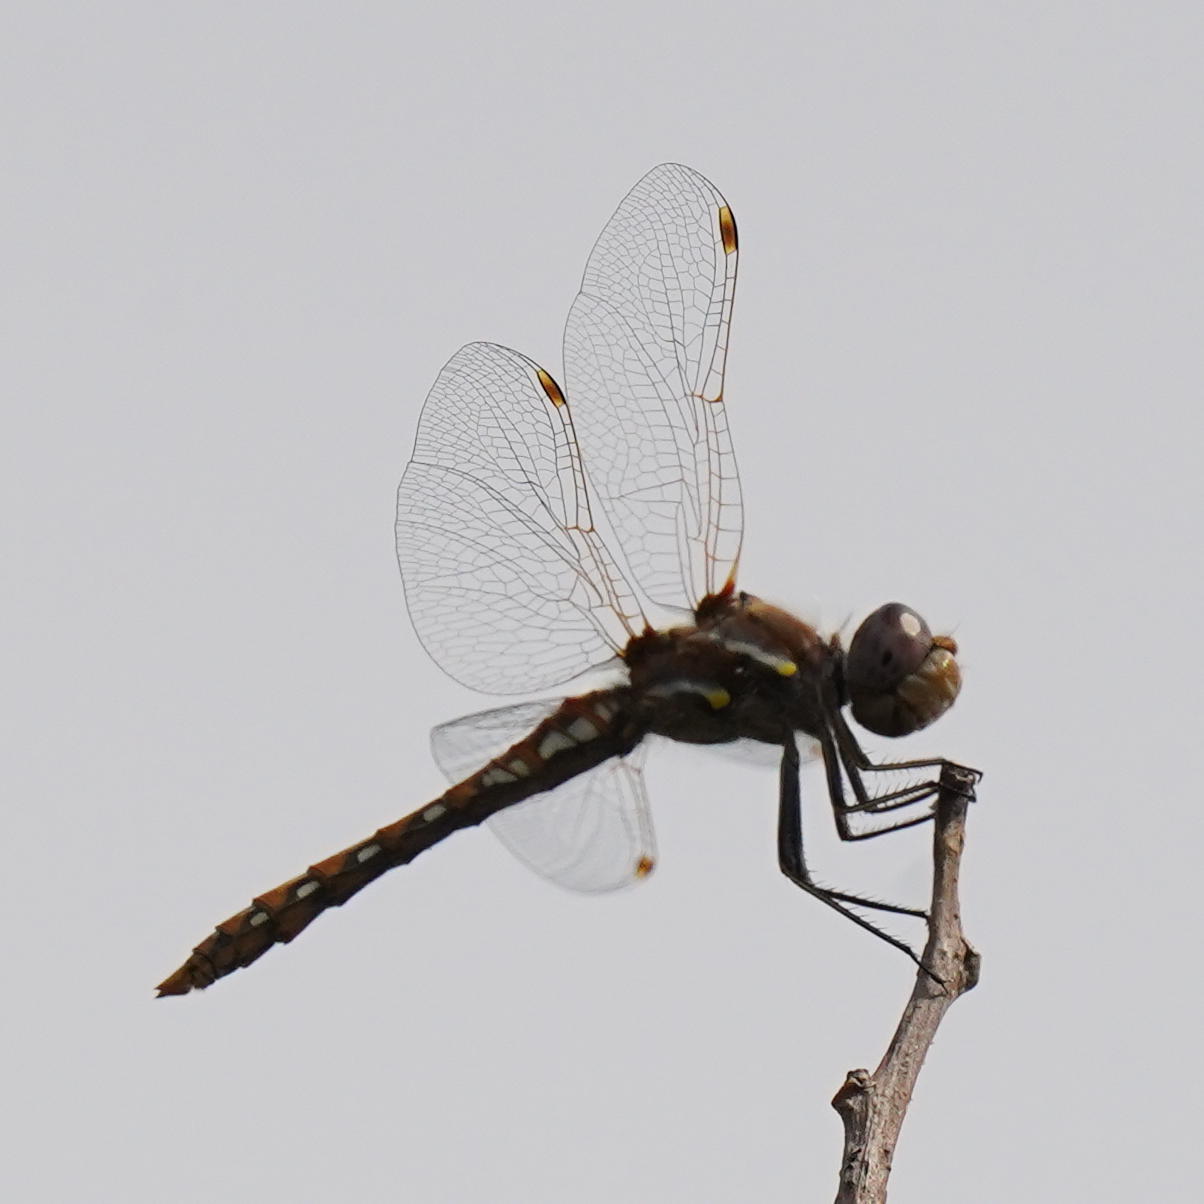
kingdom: Animalia
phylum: Arthropoda
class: Insecta
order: Odonata
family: Libellulidae
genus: Sympetrum
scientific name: Sympetrum corruptum
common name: Variegated meadowhawk
